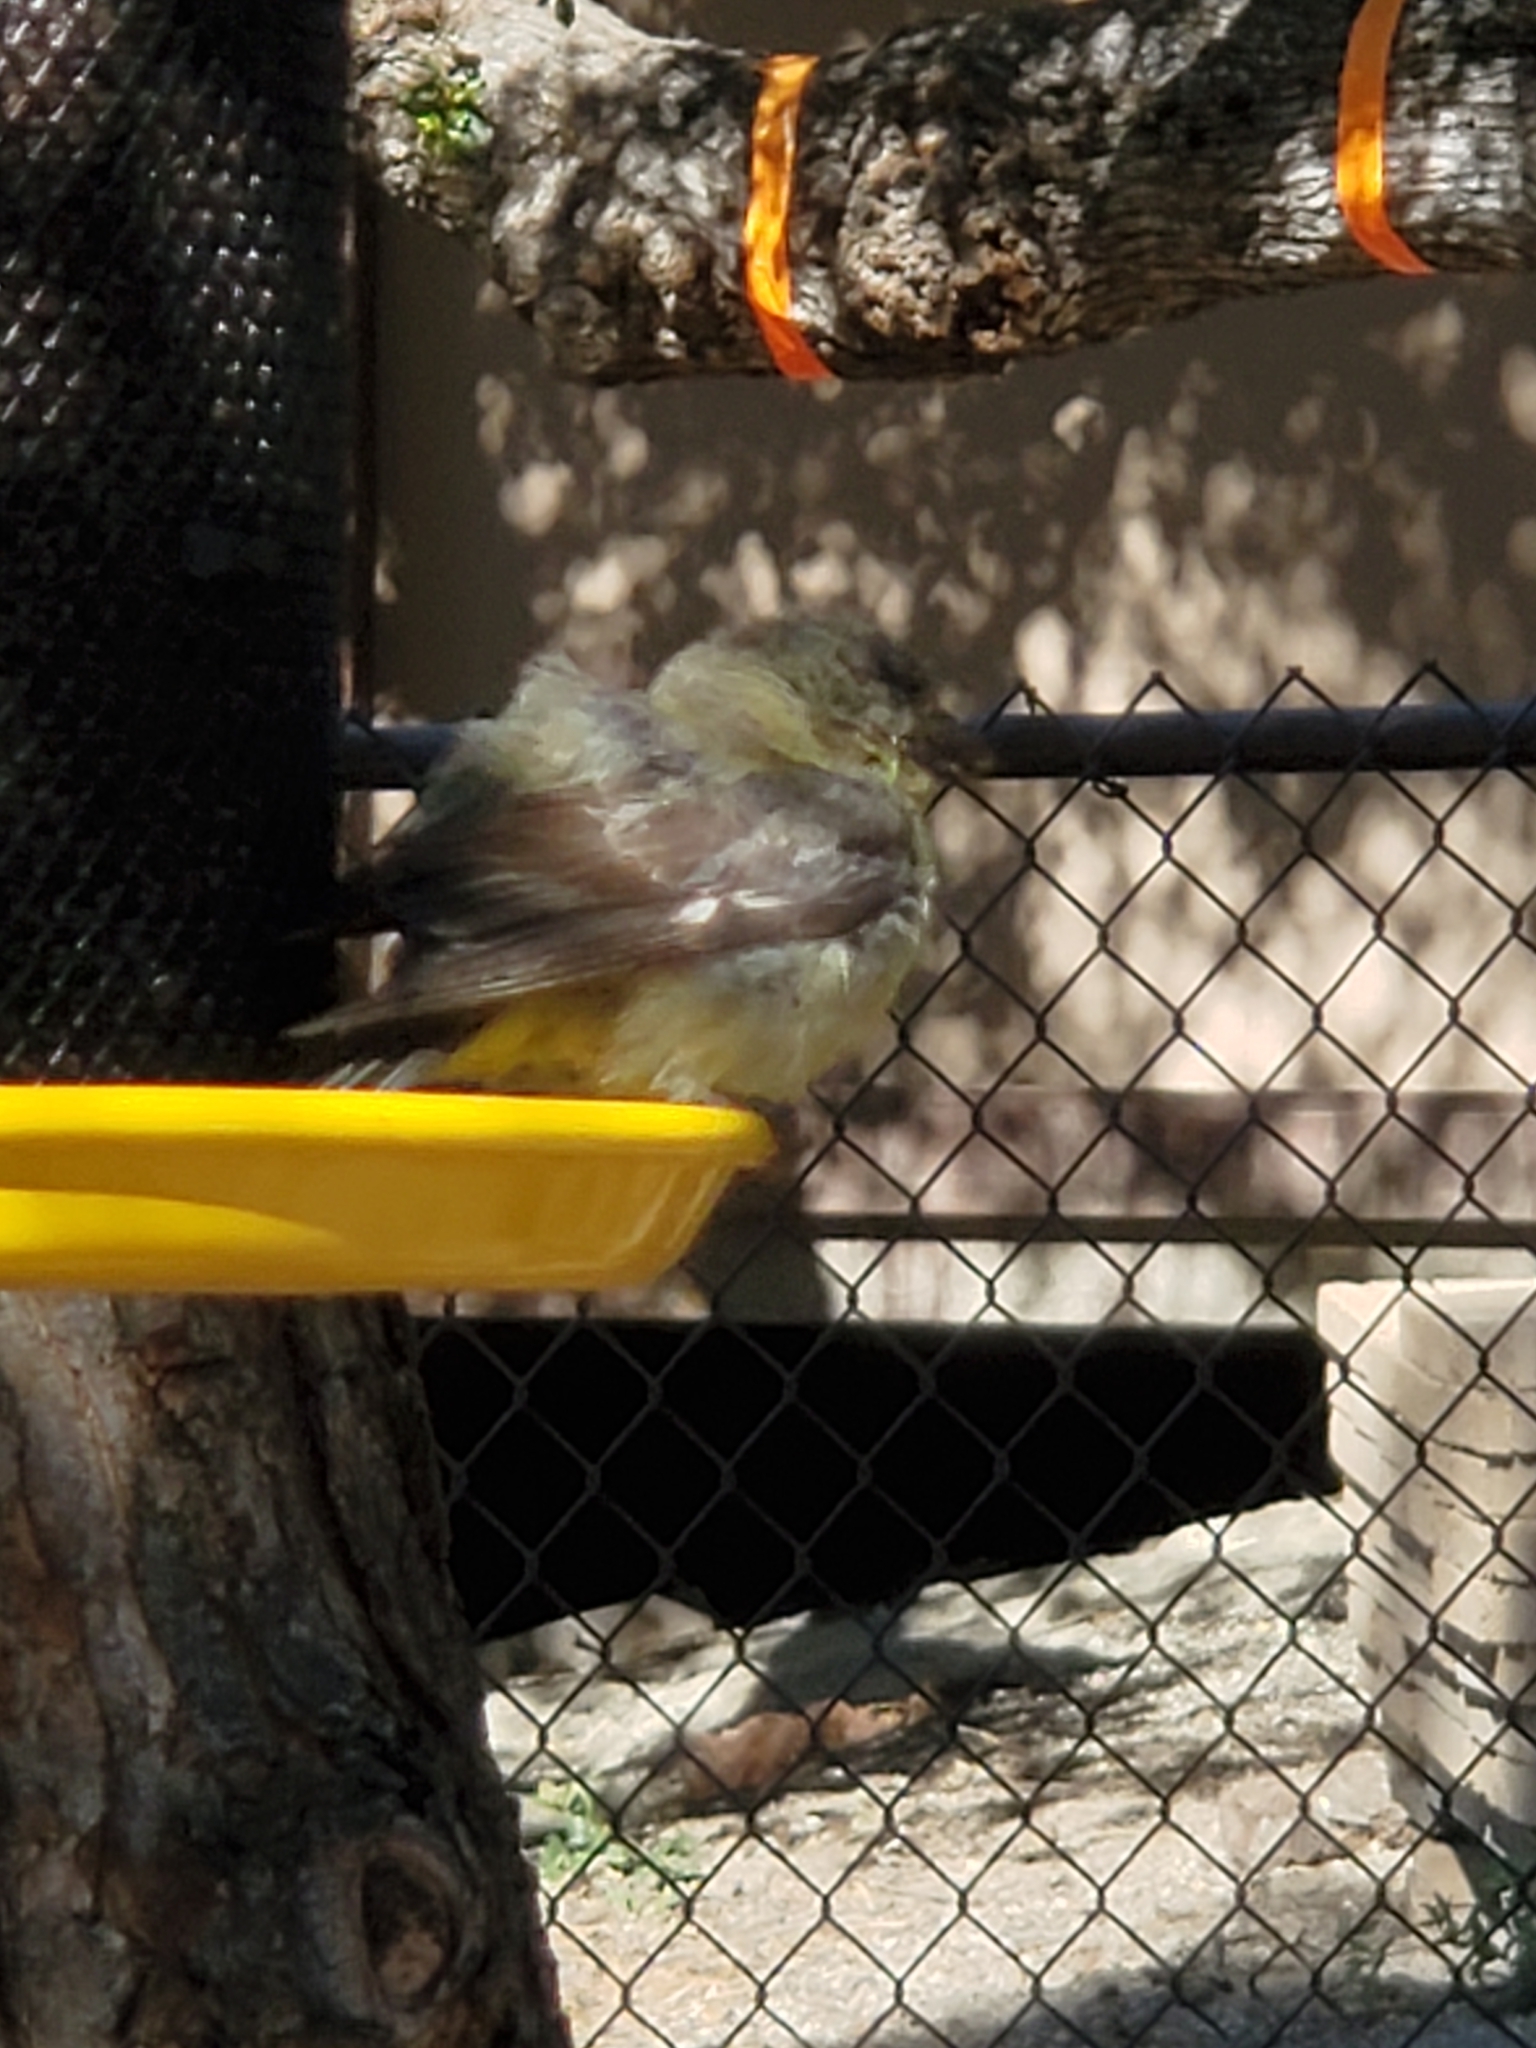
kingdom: Animalia
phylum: Chordata
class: Aves
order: Passeriformes
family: Fringillidae
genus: Spinus
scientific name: Spinus psaltria
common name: Lesser goldfinch
